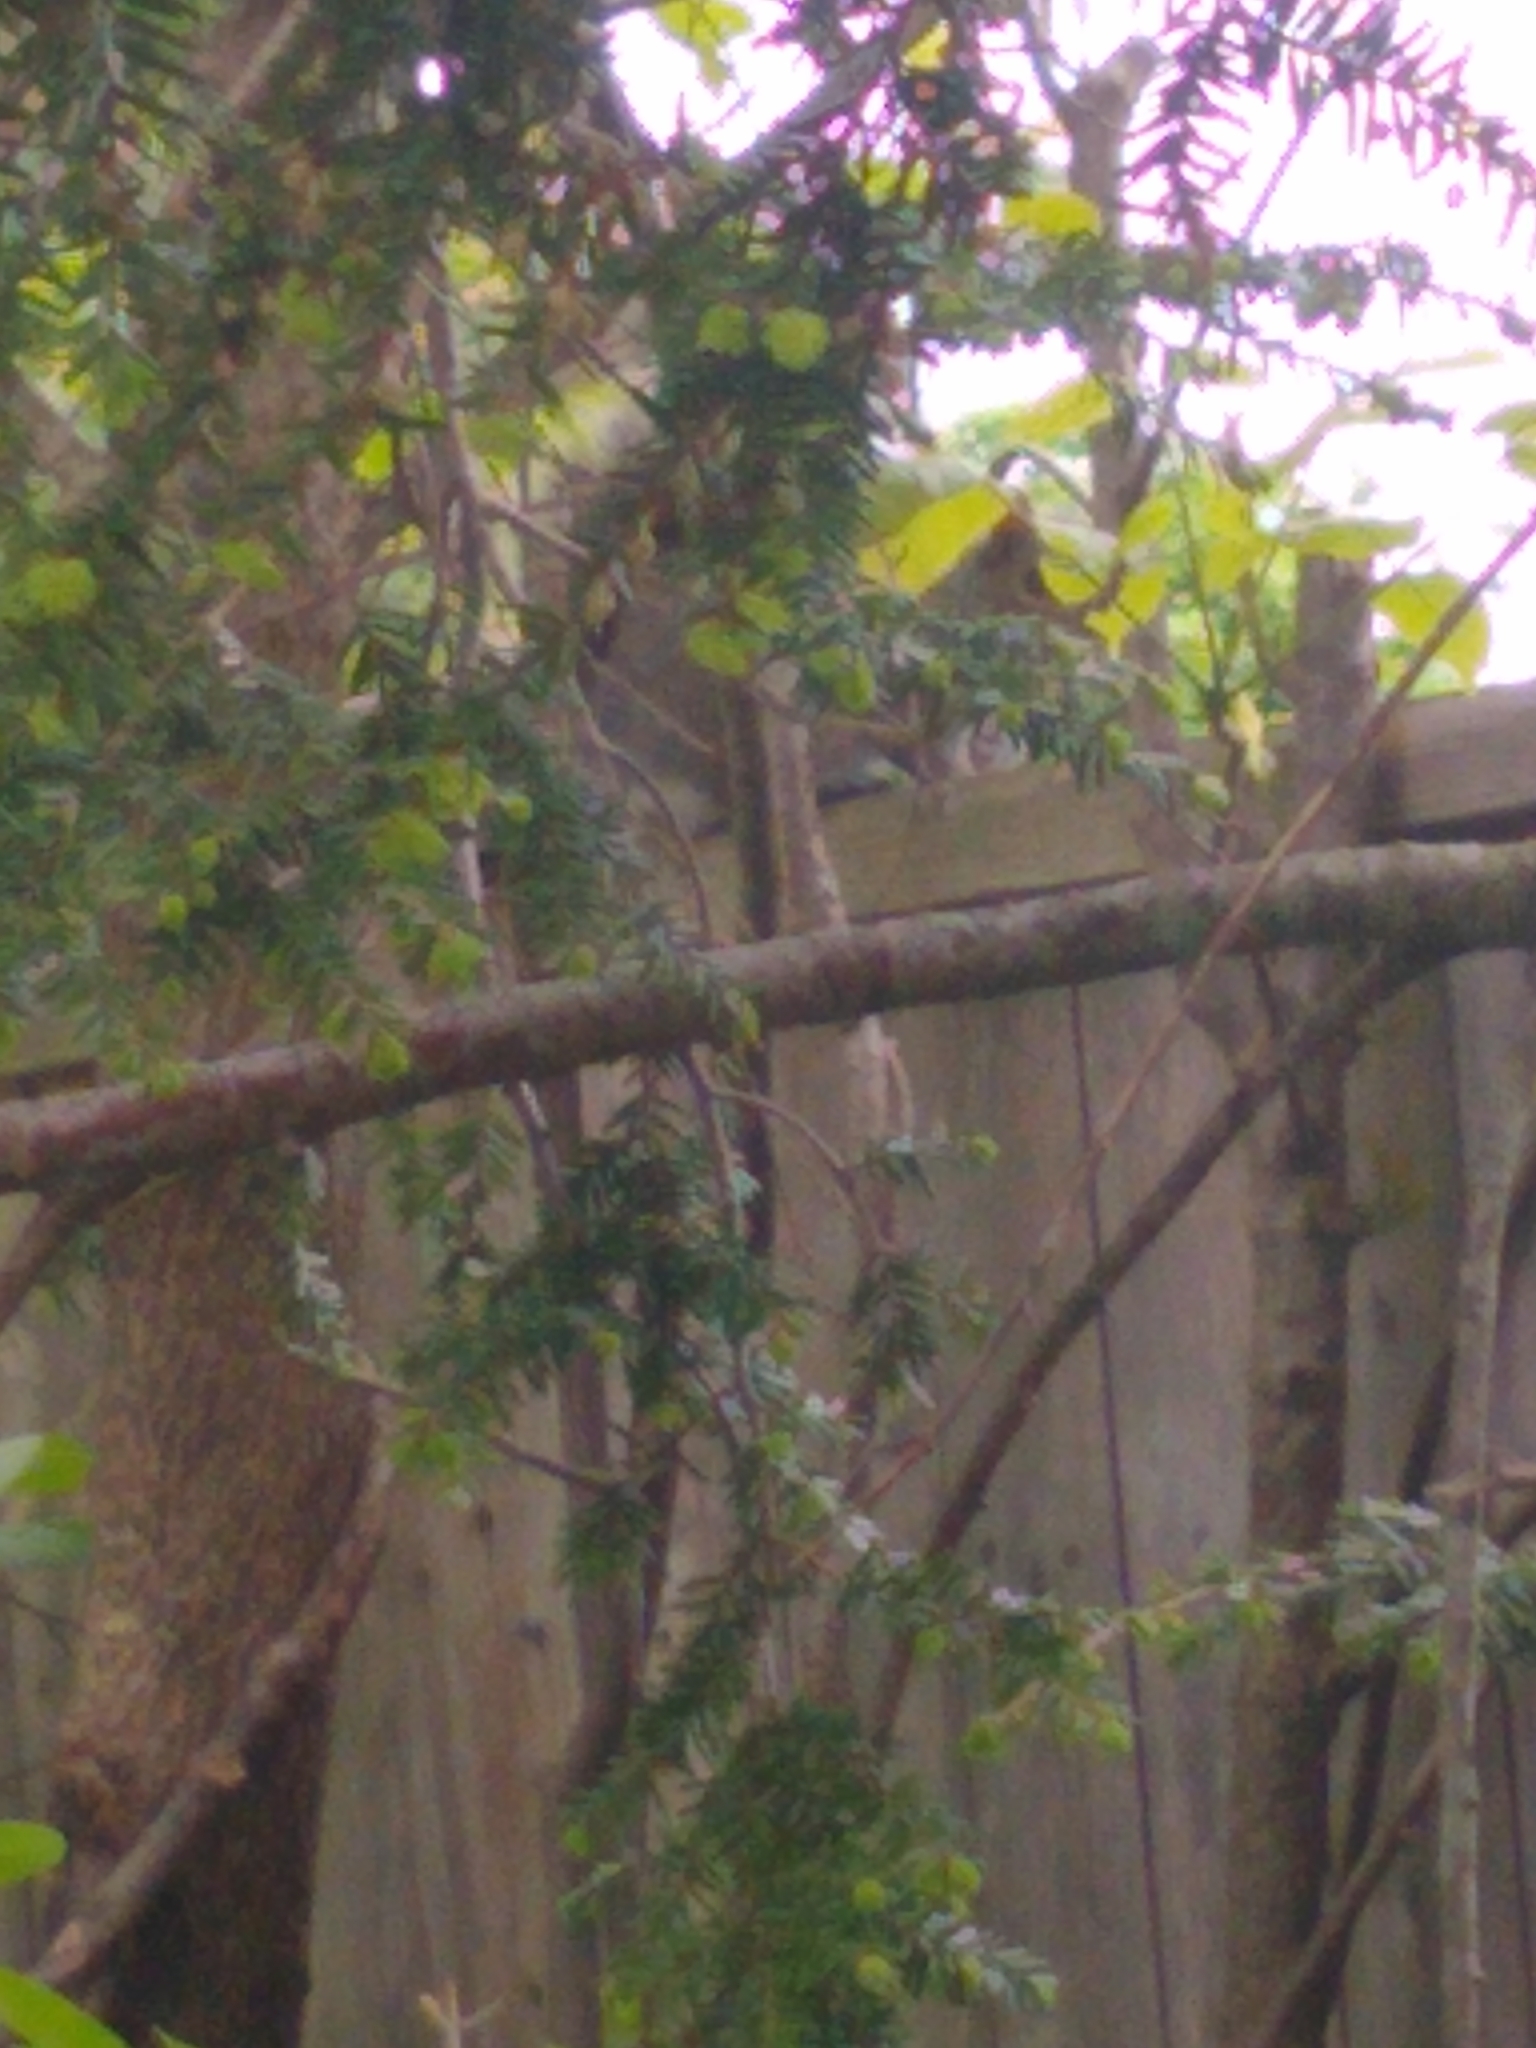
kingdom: Animalia
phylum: Chordata
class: Mammalia
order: Rodentia
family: Sciuridae
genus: Sciurus
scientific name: Sciurus carolinensis
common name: Eastern gray squirrel
